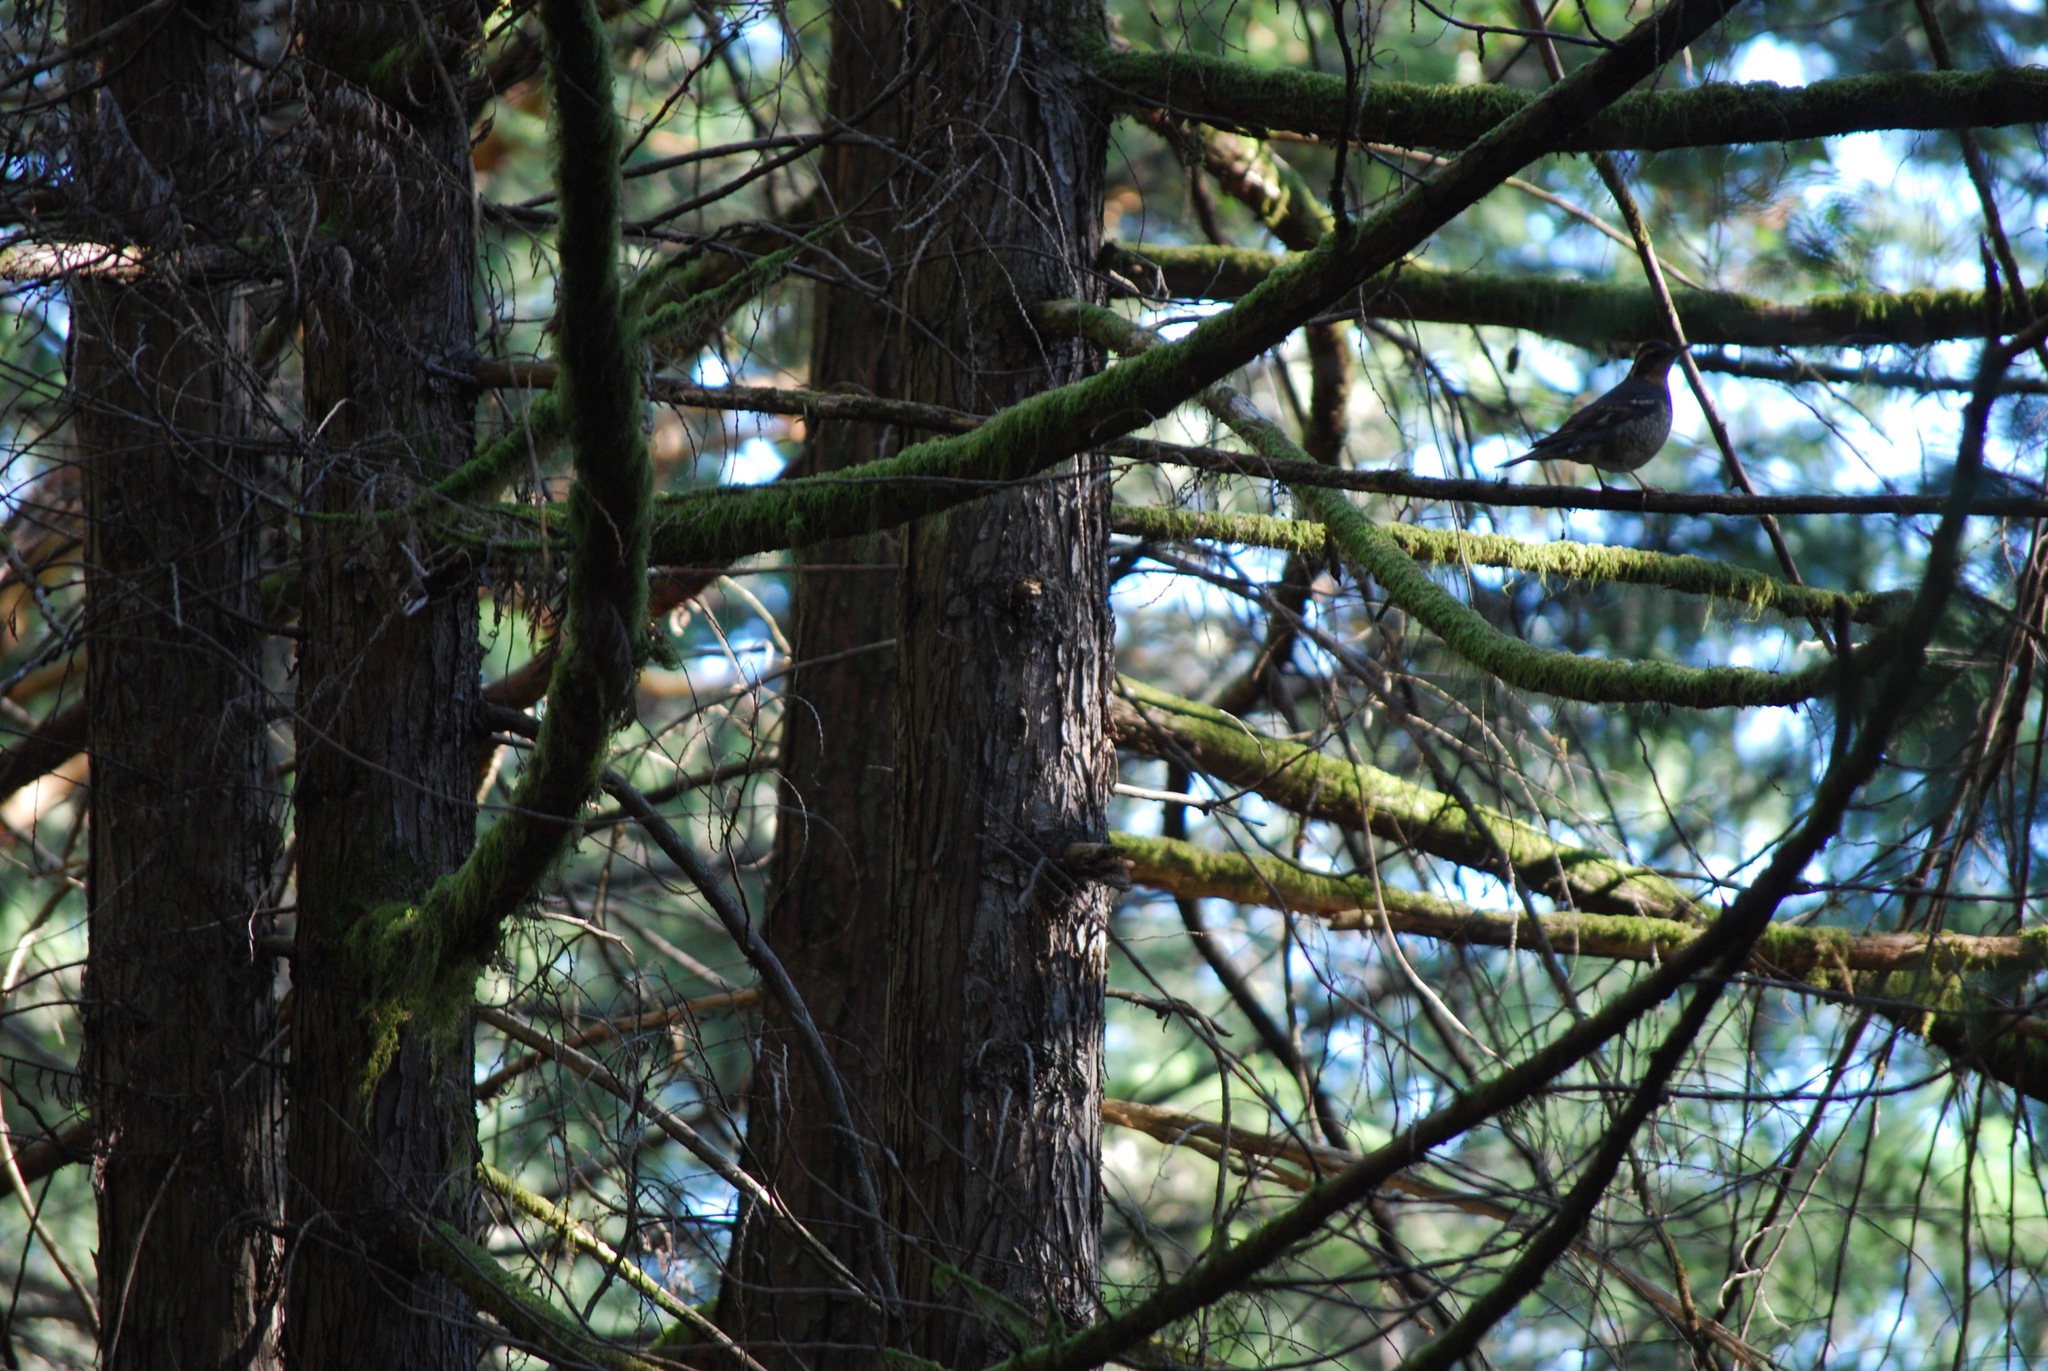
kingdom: Animalia
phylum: Chordata
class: Aves
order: Passeriformes
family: Turdidae
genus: Ixoreus
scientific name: Ixoreus naevius
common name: Varied thrush
